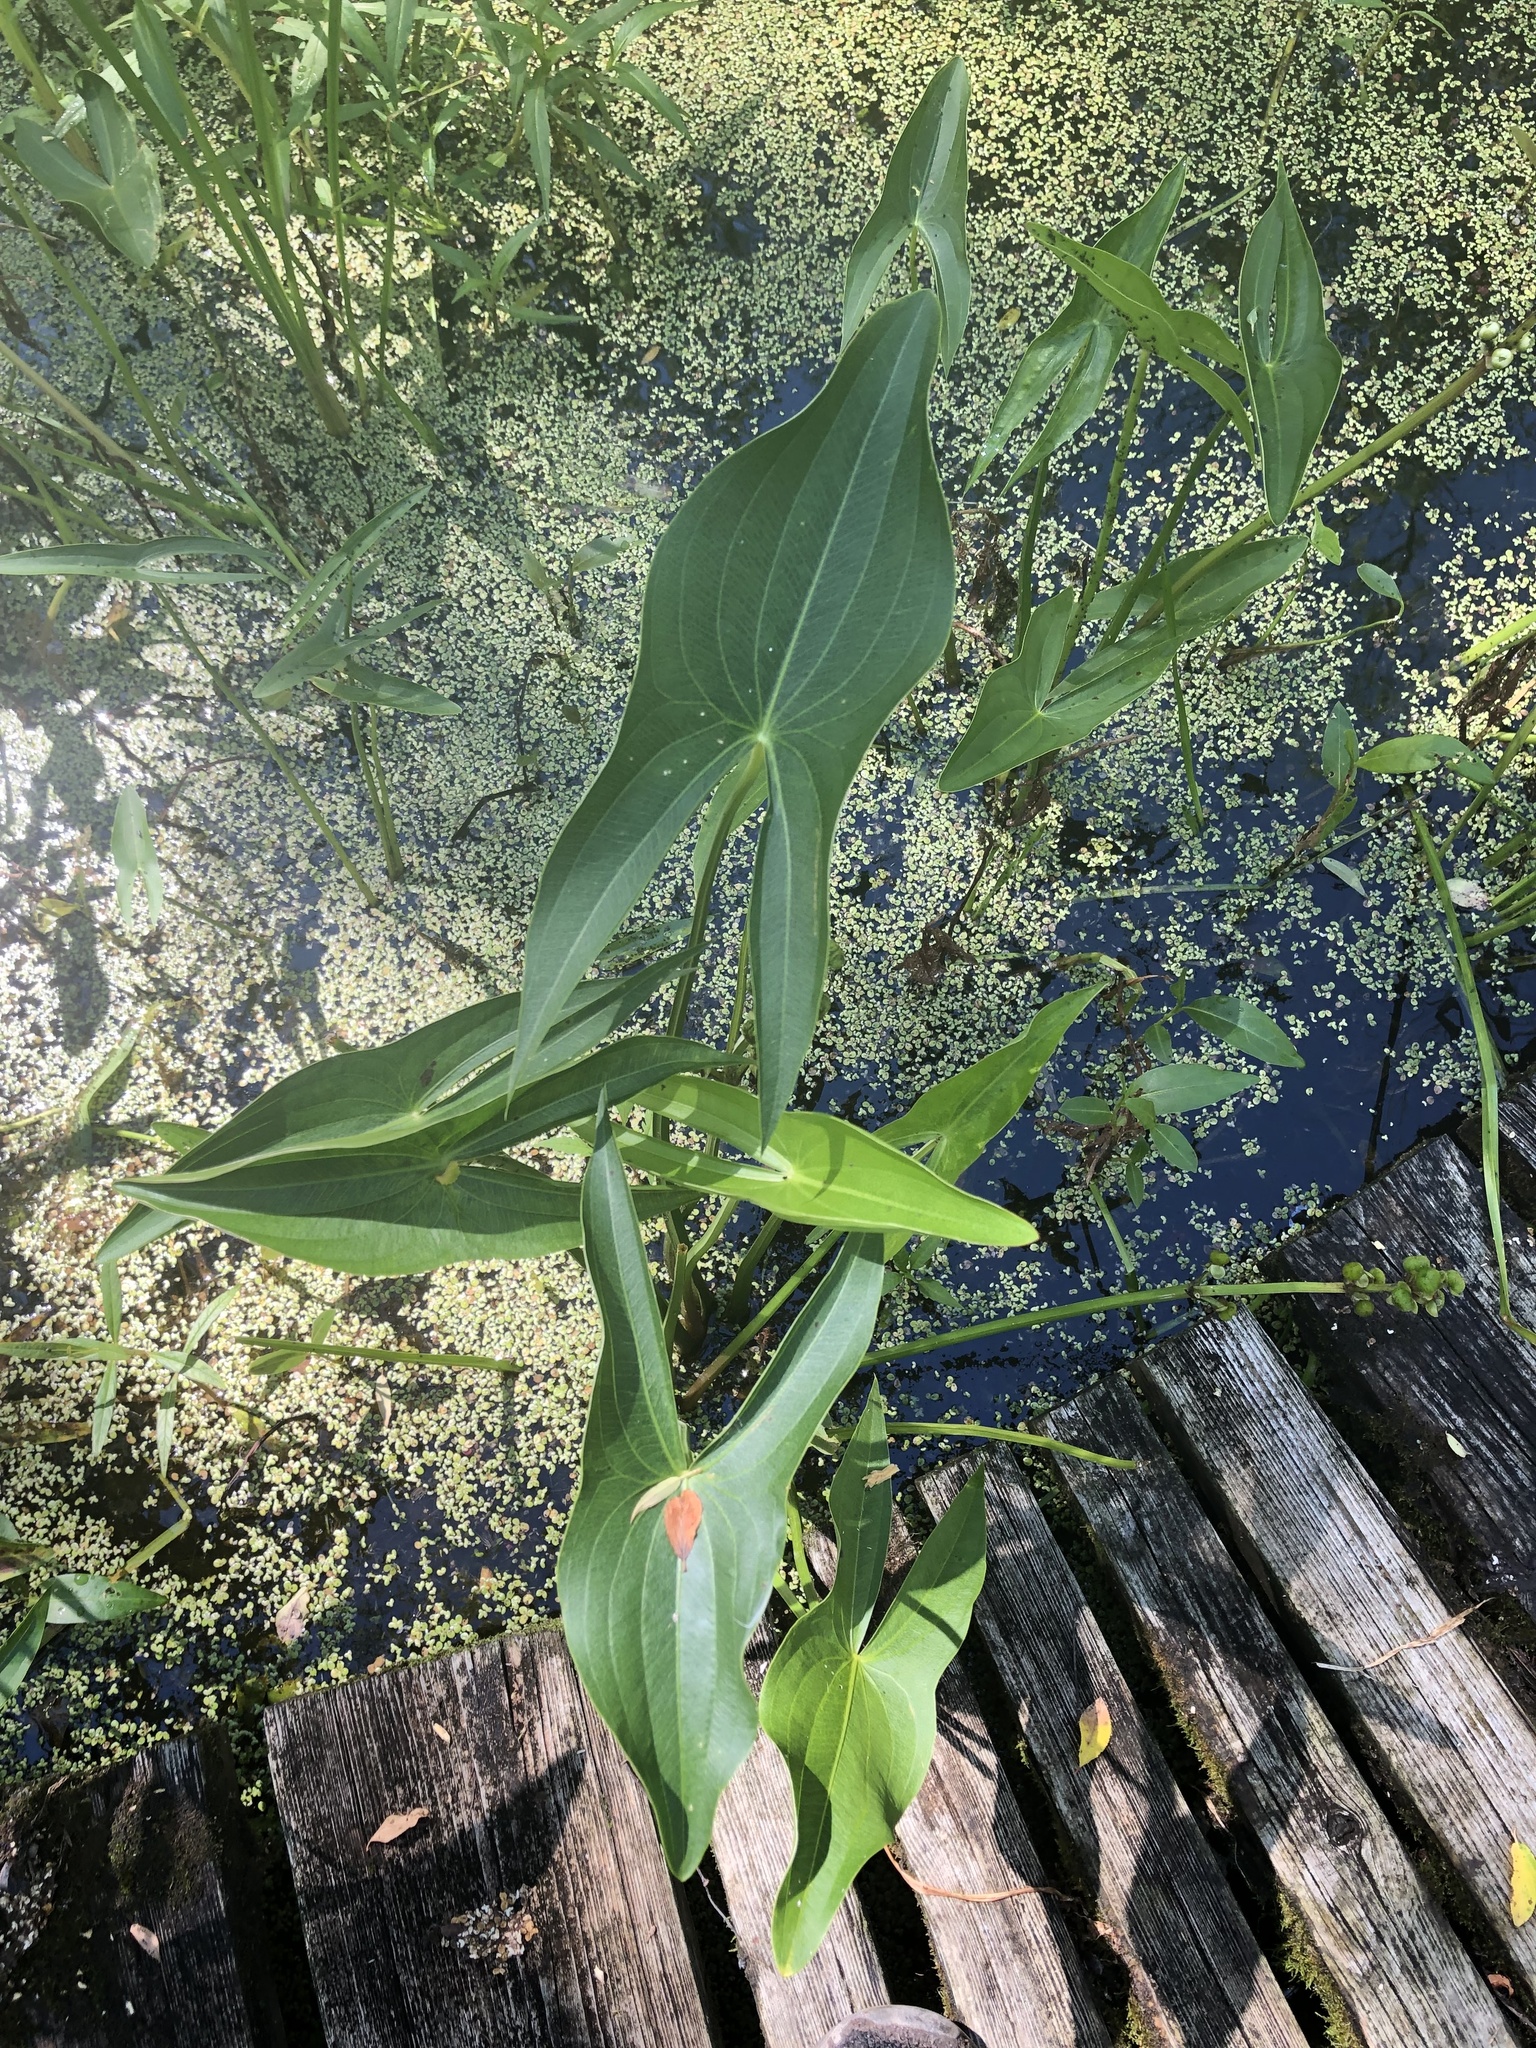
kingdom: Plantae
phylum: Tracheophyta
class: Liliopsida
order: Alismatales
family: Alismataceae
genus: Sagittaria
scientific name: Sagittaria latifolia
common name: Duck-potato
